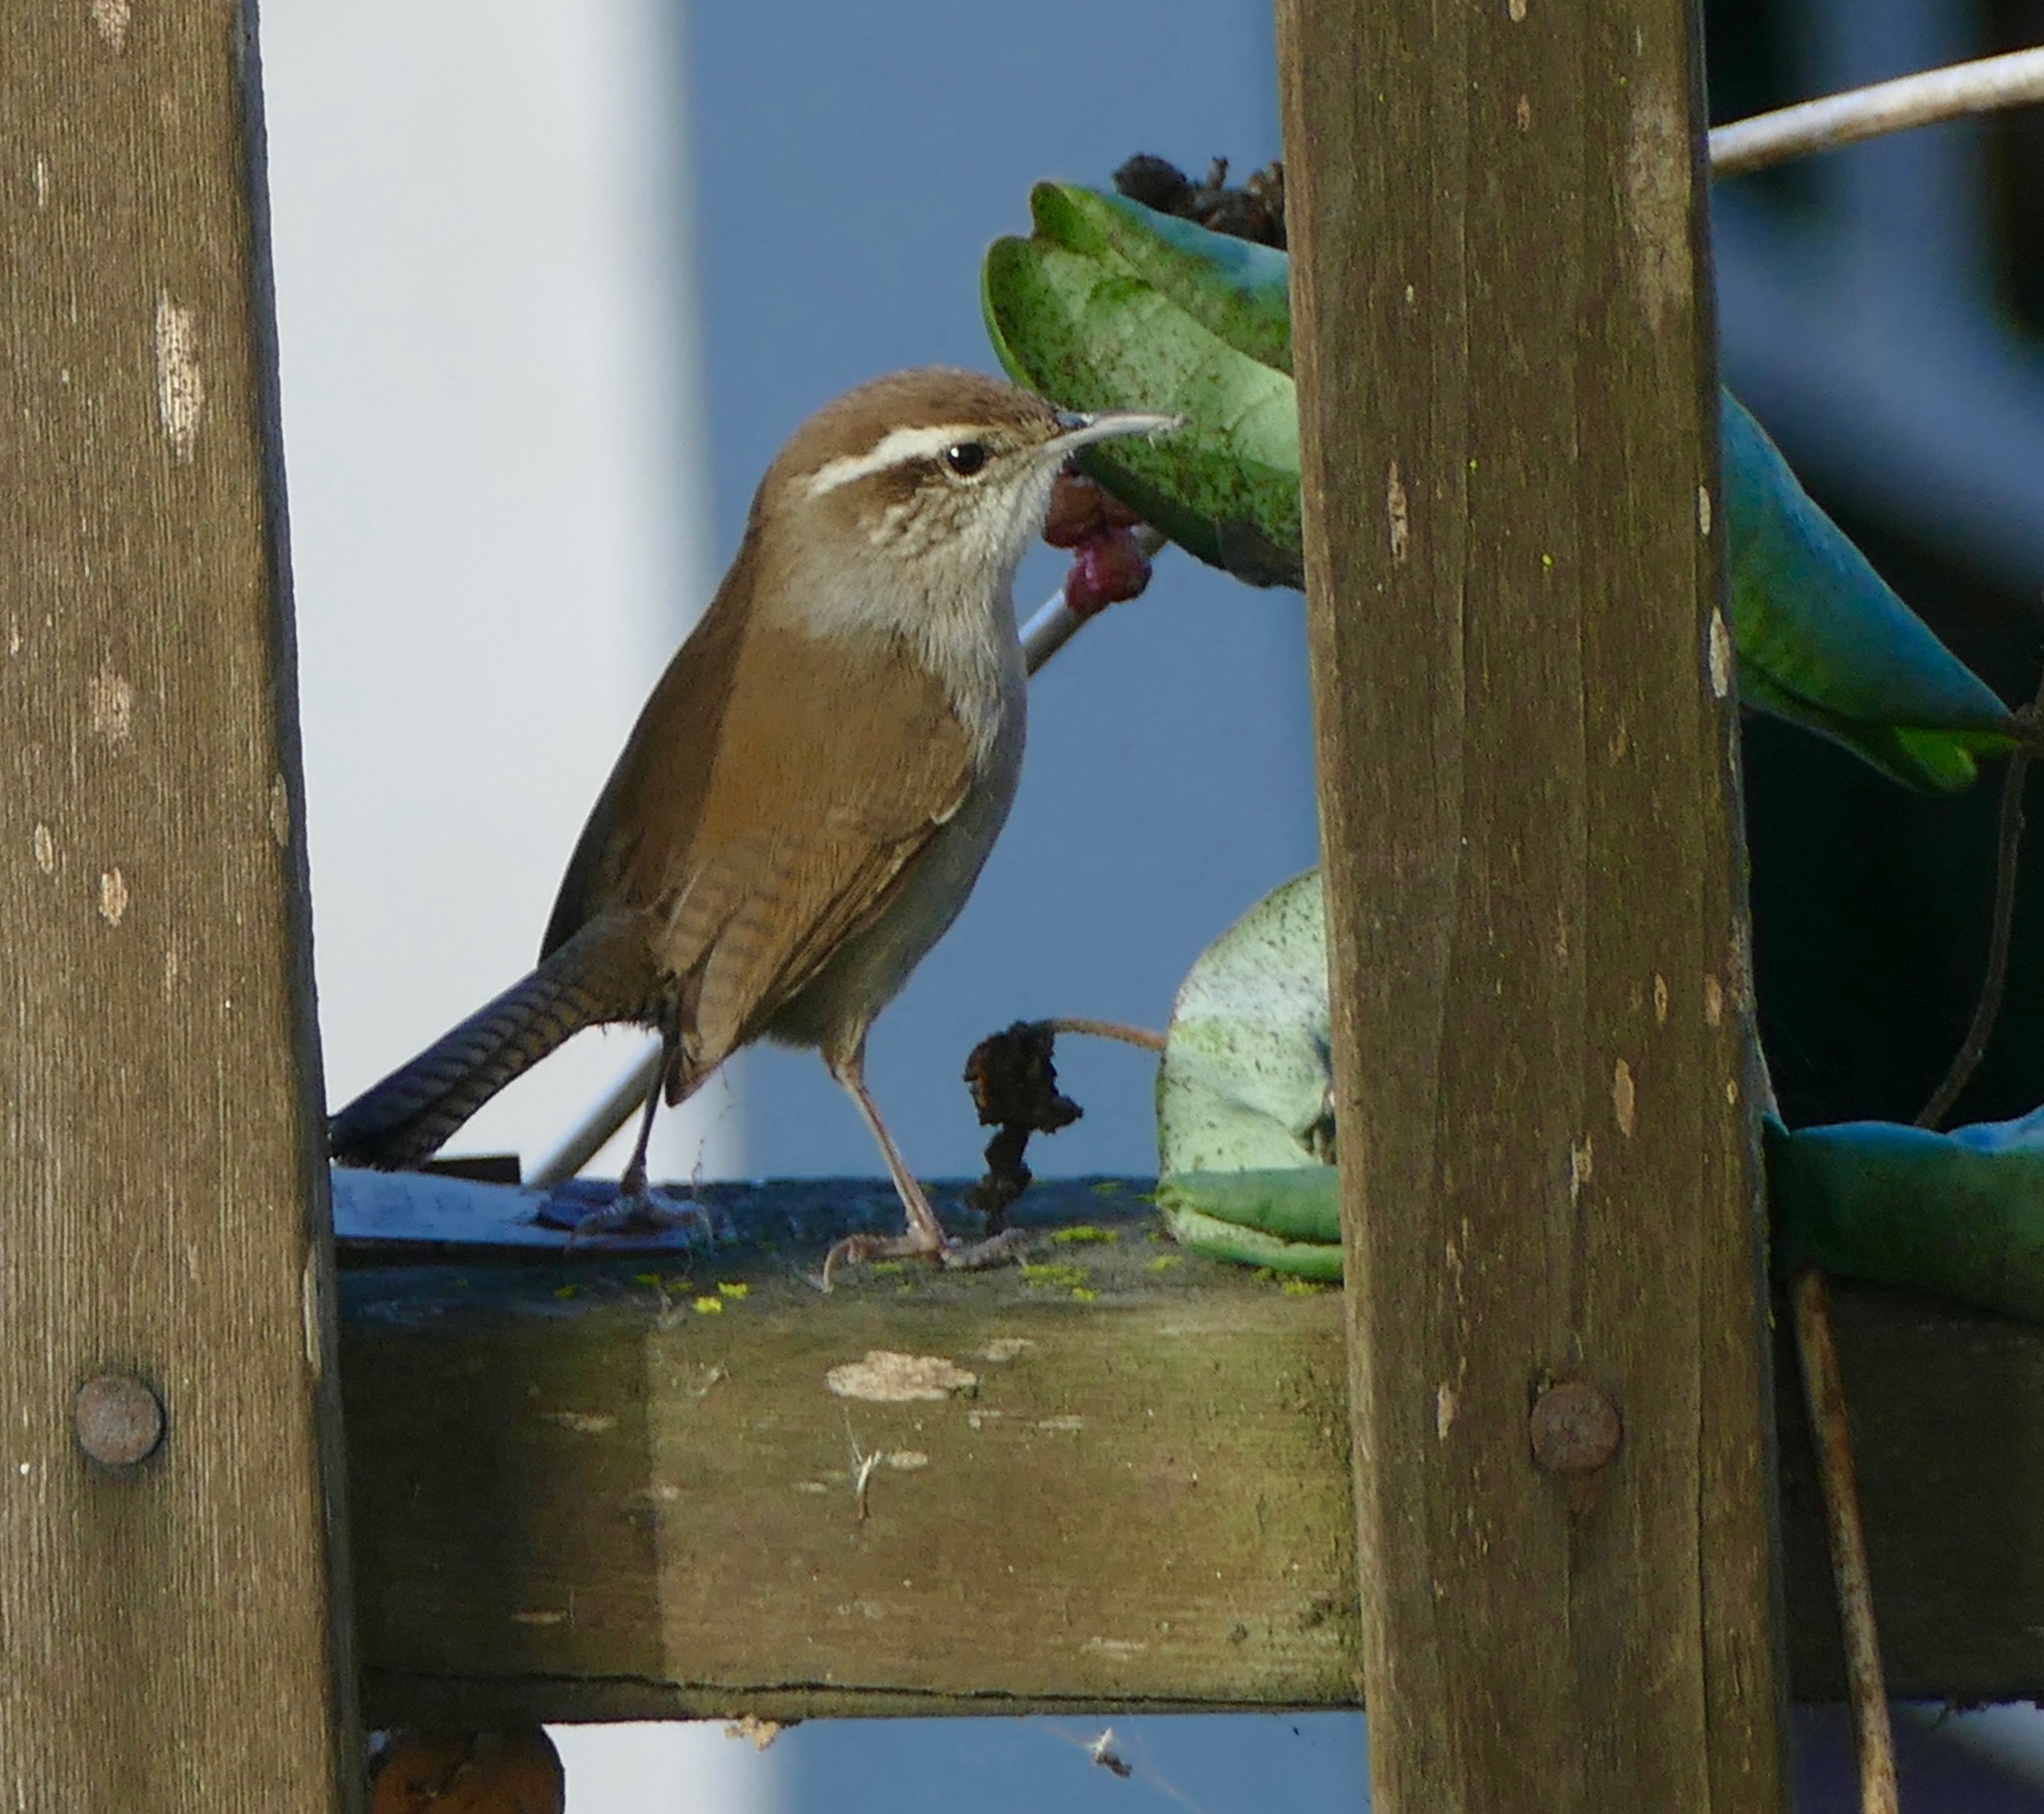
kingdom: Animalia
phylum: Chordata
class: Aves
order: Passeriformes
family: Troglodytidae
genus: Thryomanes
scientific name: Thryomanes bewickii
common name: Bewick's wren
